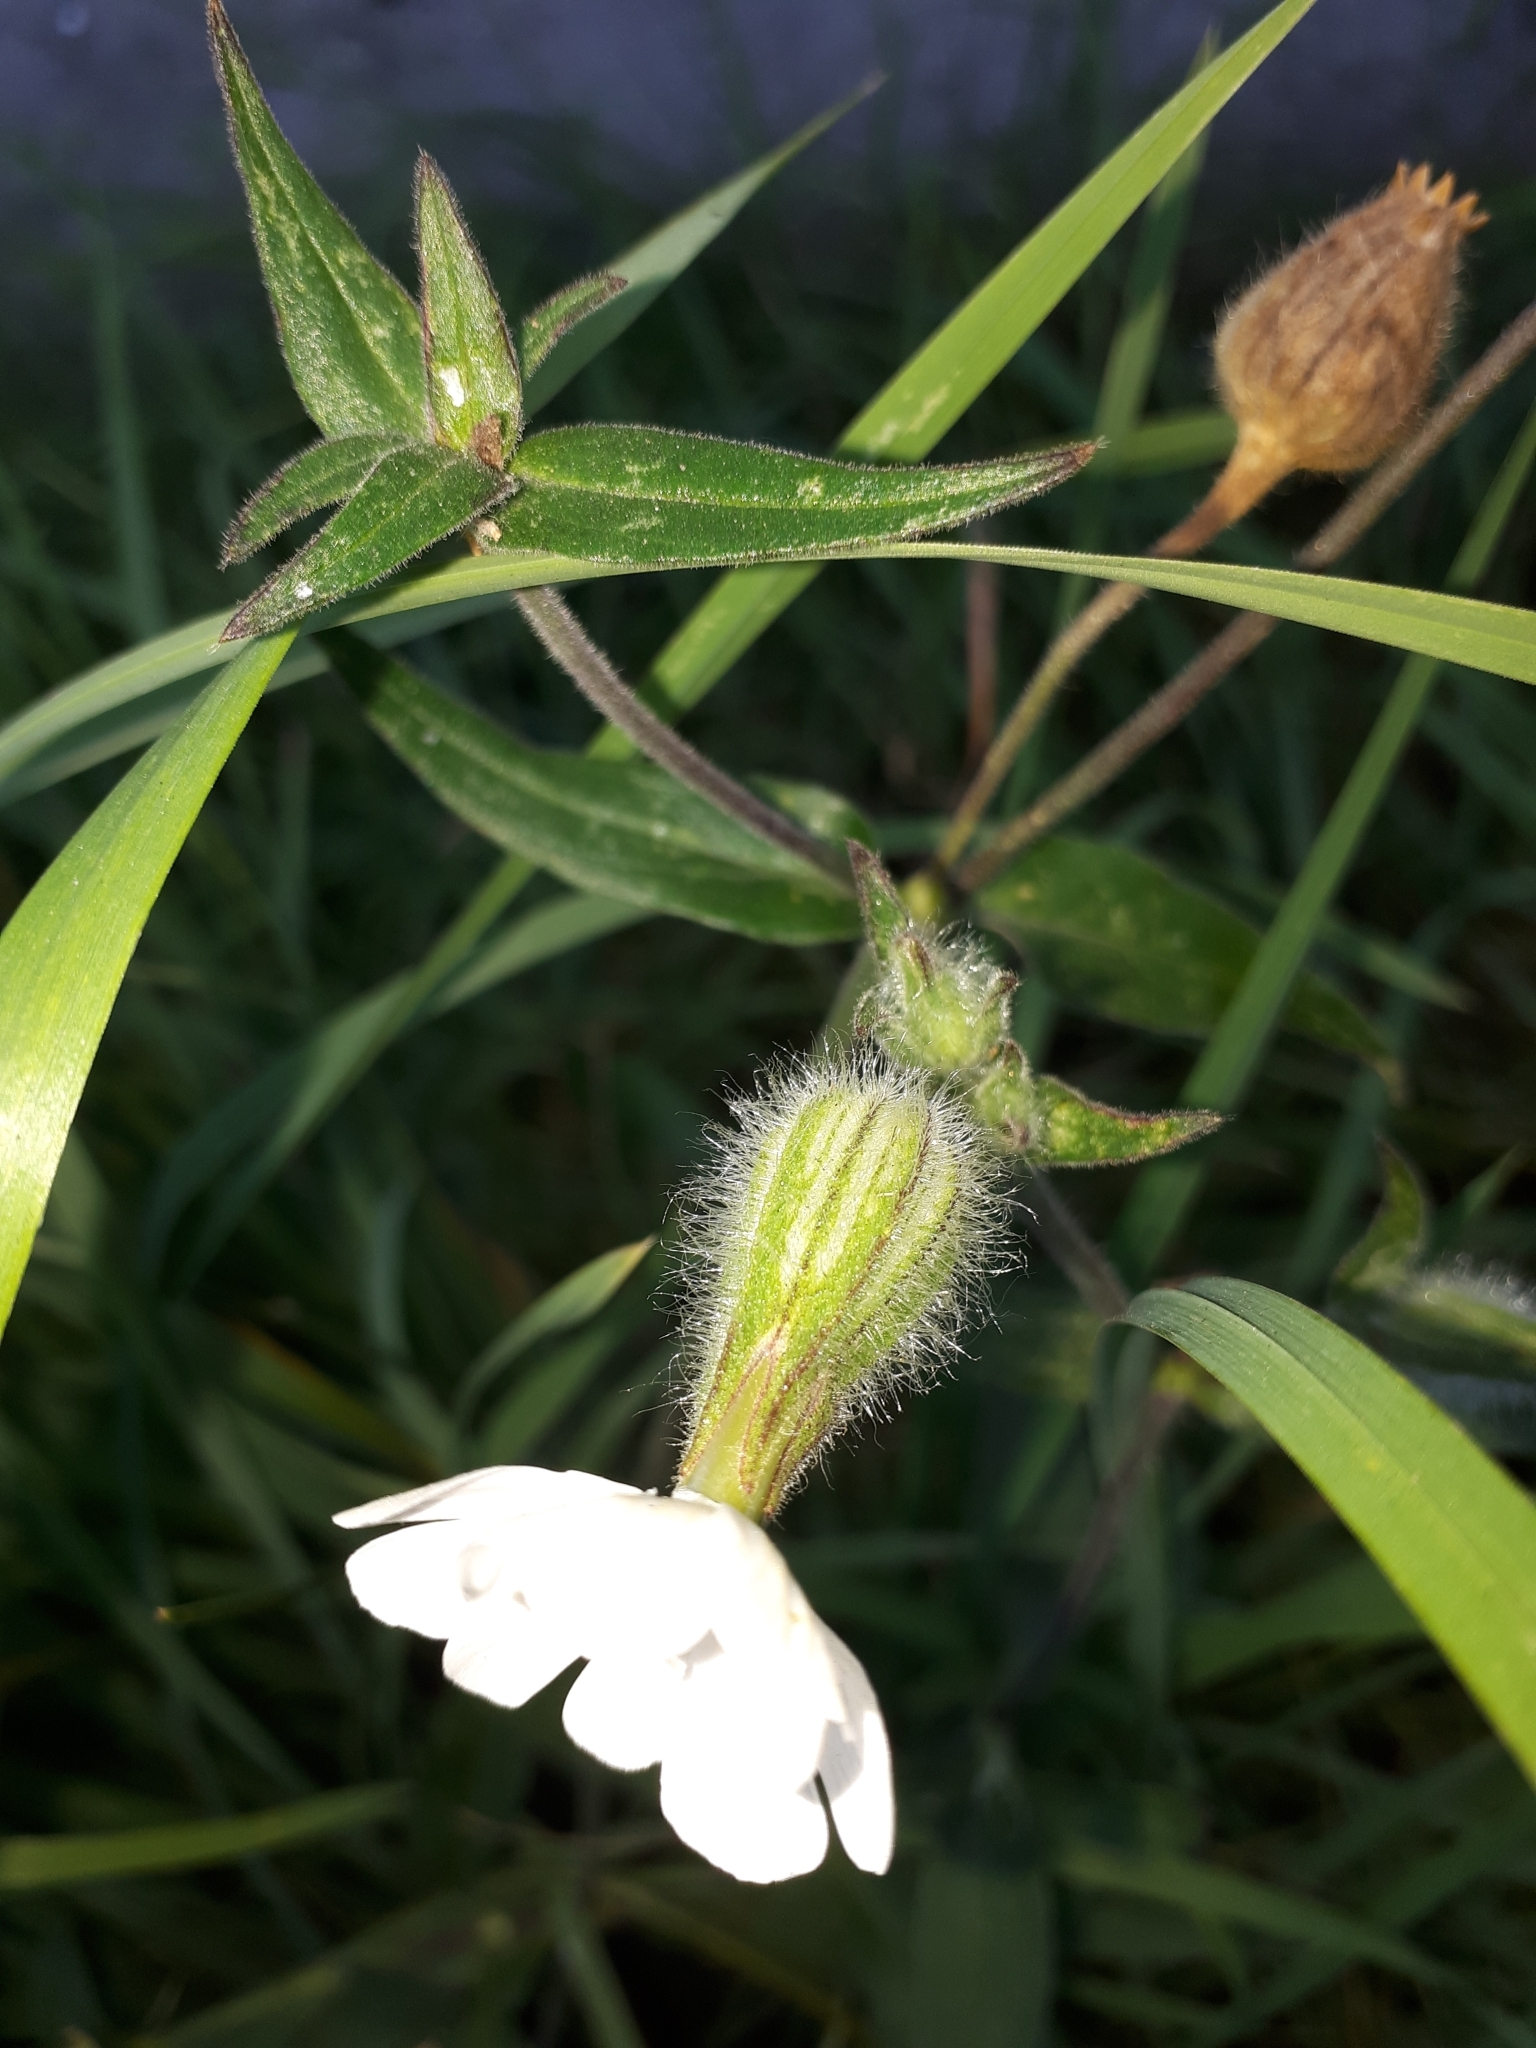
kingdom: Plantae
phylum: Tracheophyta
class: Magnoliopsida
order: Caryophyllales
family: Caryophyllaceae
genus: Silene
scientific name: Silene latifolia
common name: White campion
